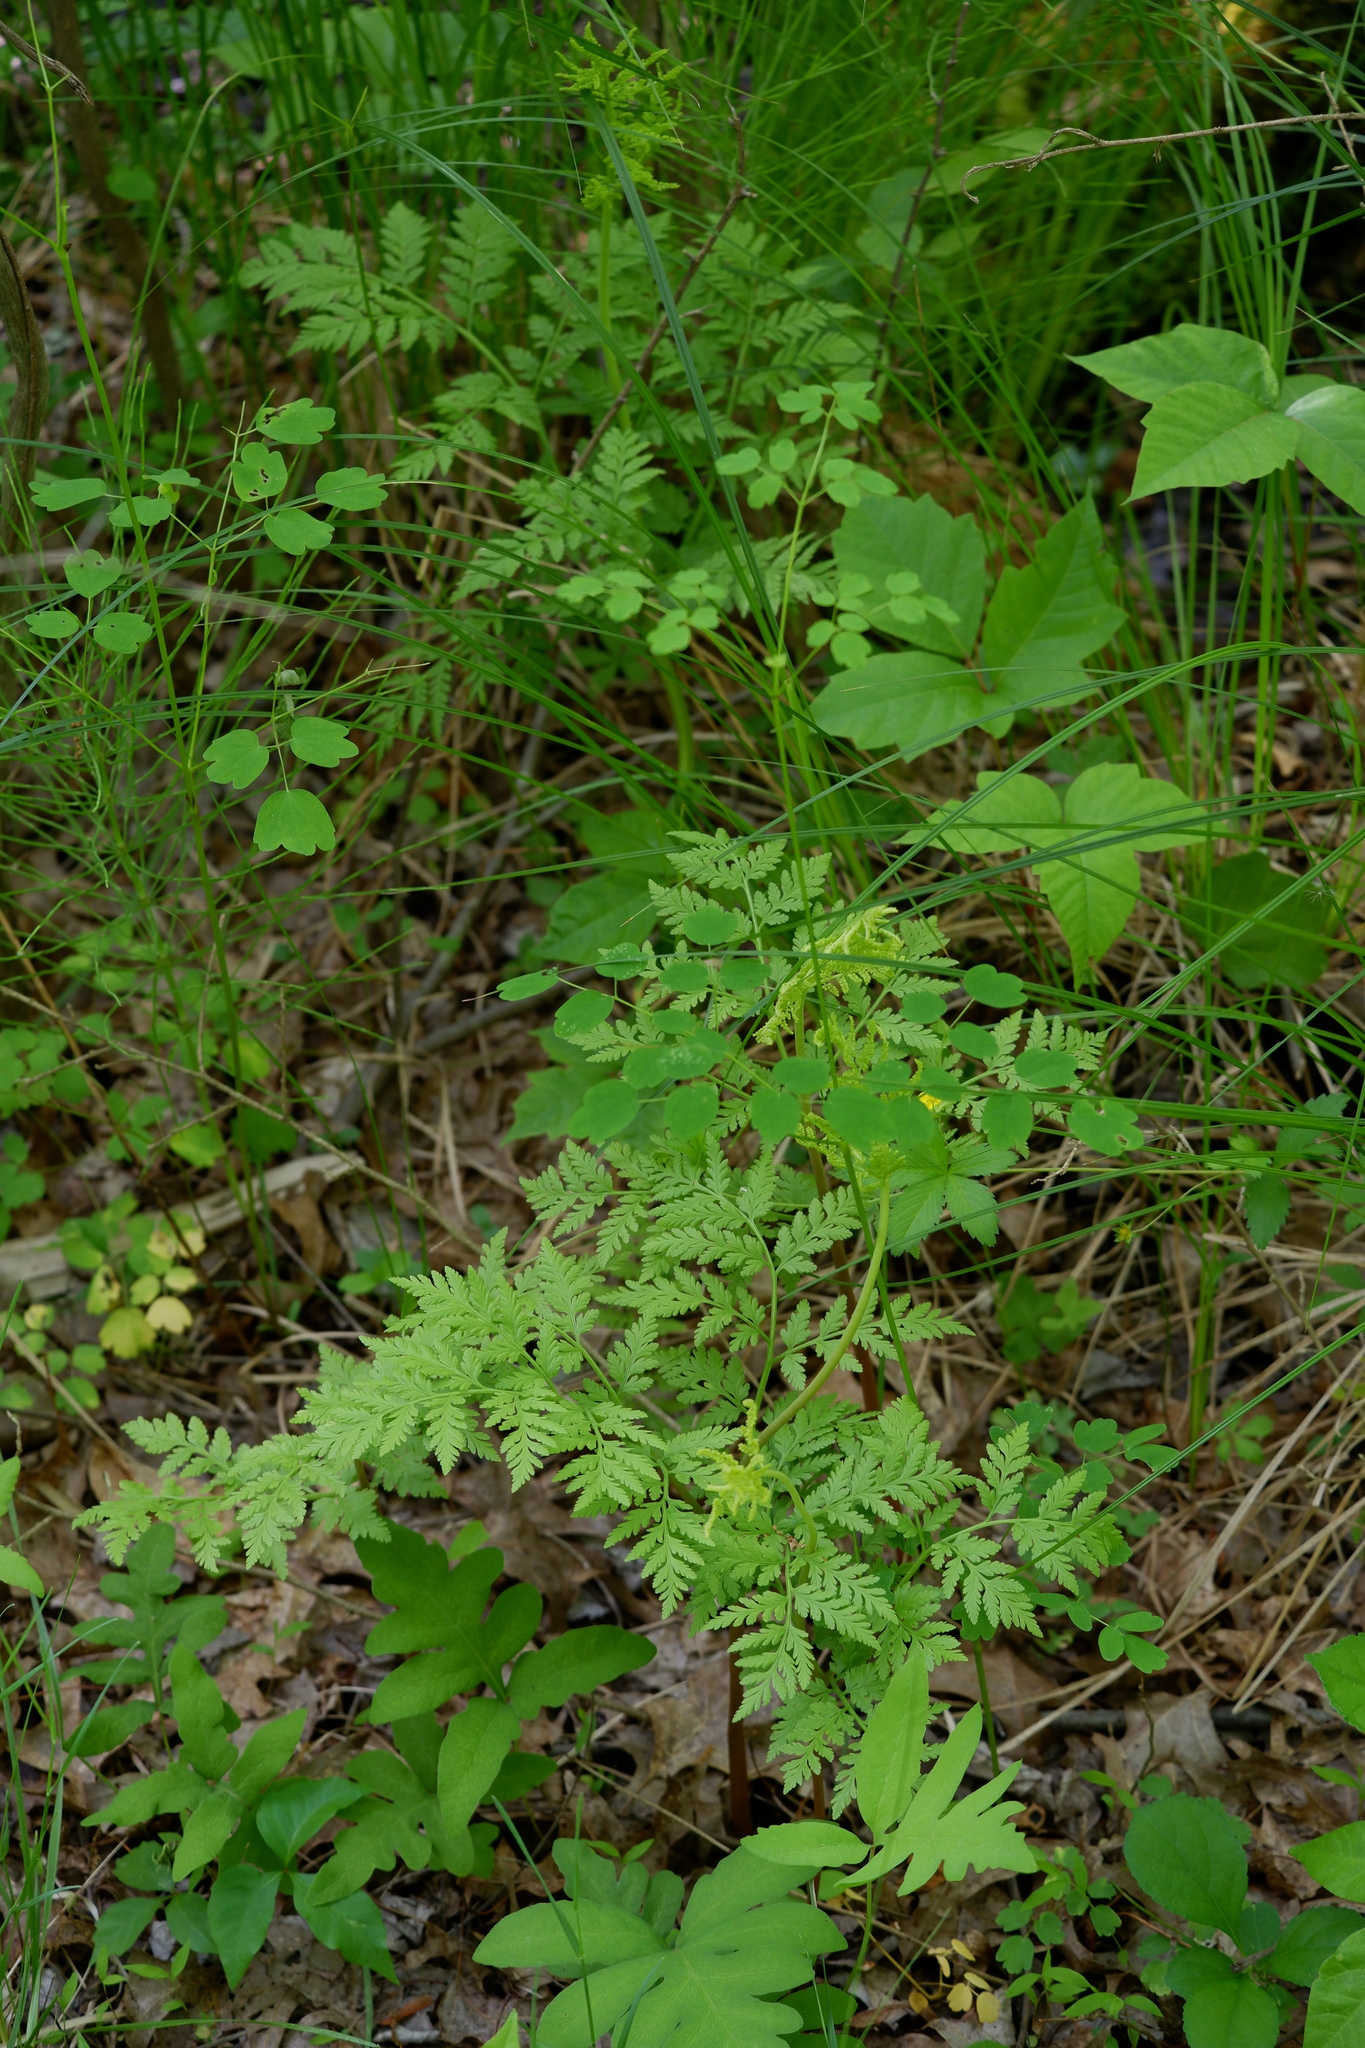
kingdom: Plantae
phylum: Tracheophyta
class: Polypodiopsida
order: Ophioglossales
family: Ophioglossaceae
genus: Botrypus
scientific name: Botrypus virginianus
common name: Common grapefern
